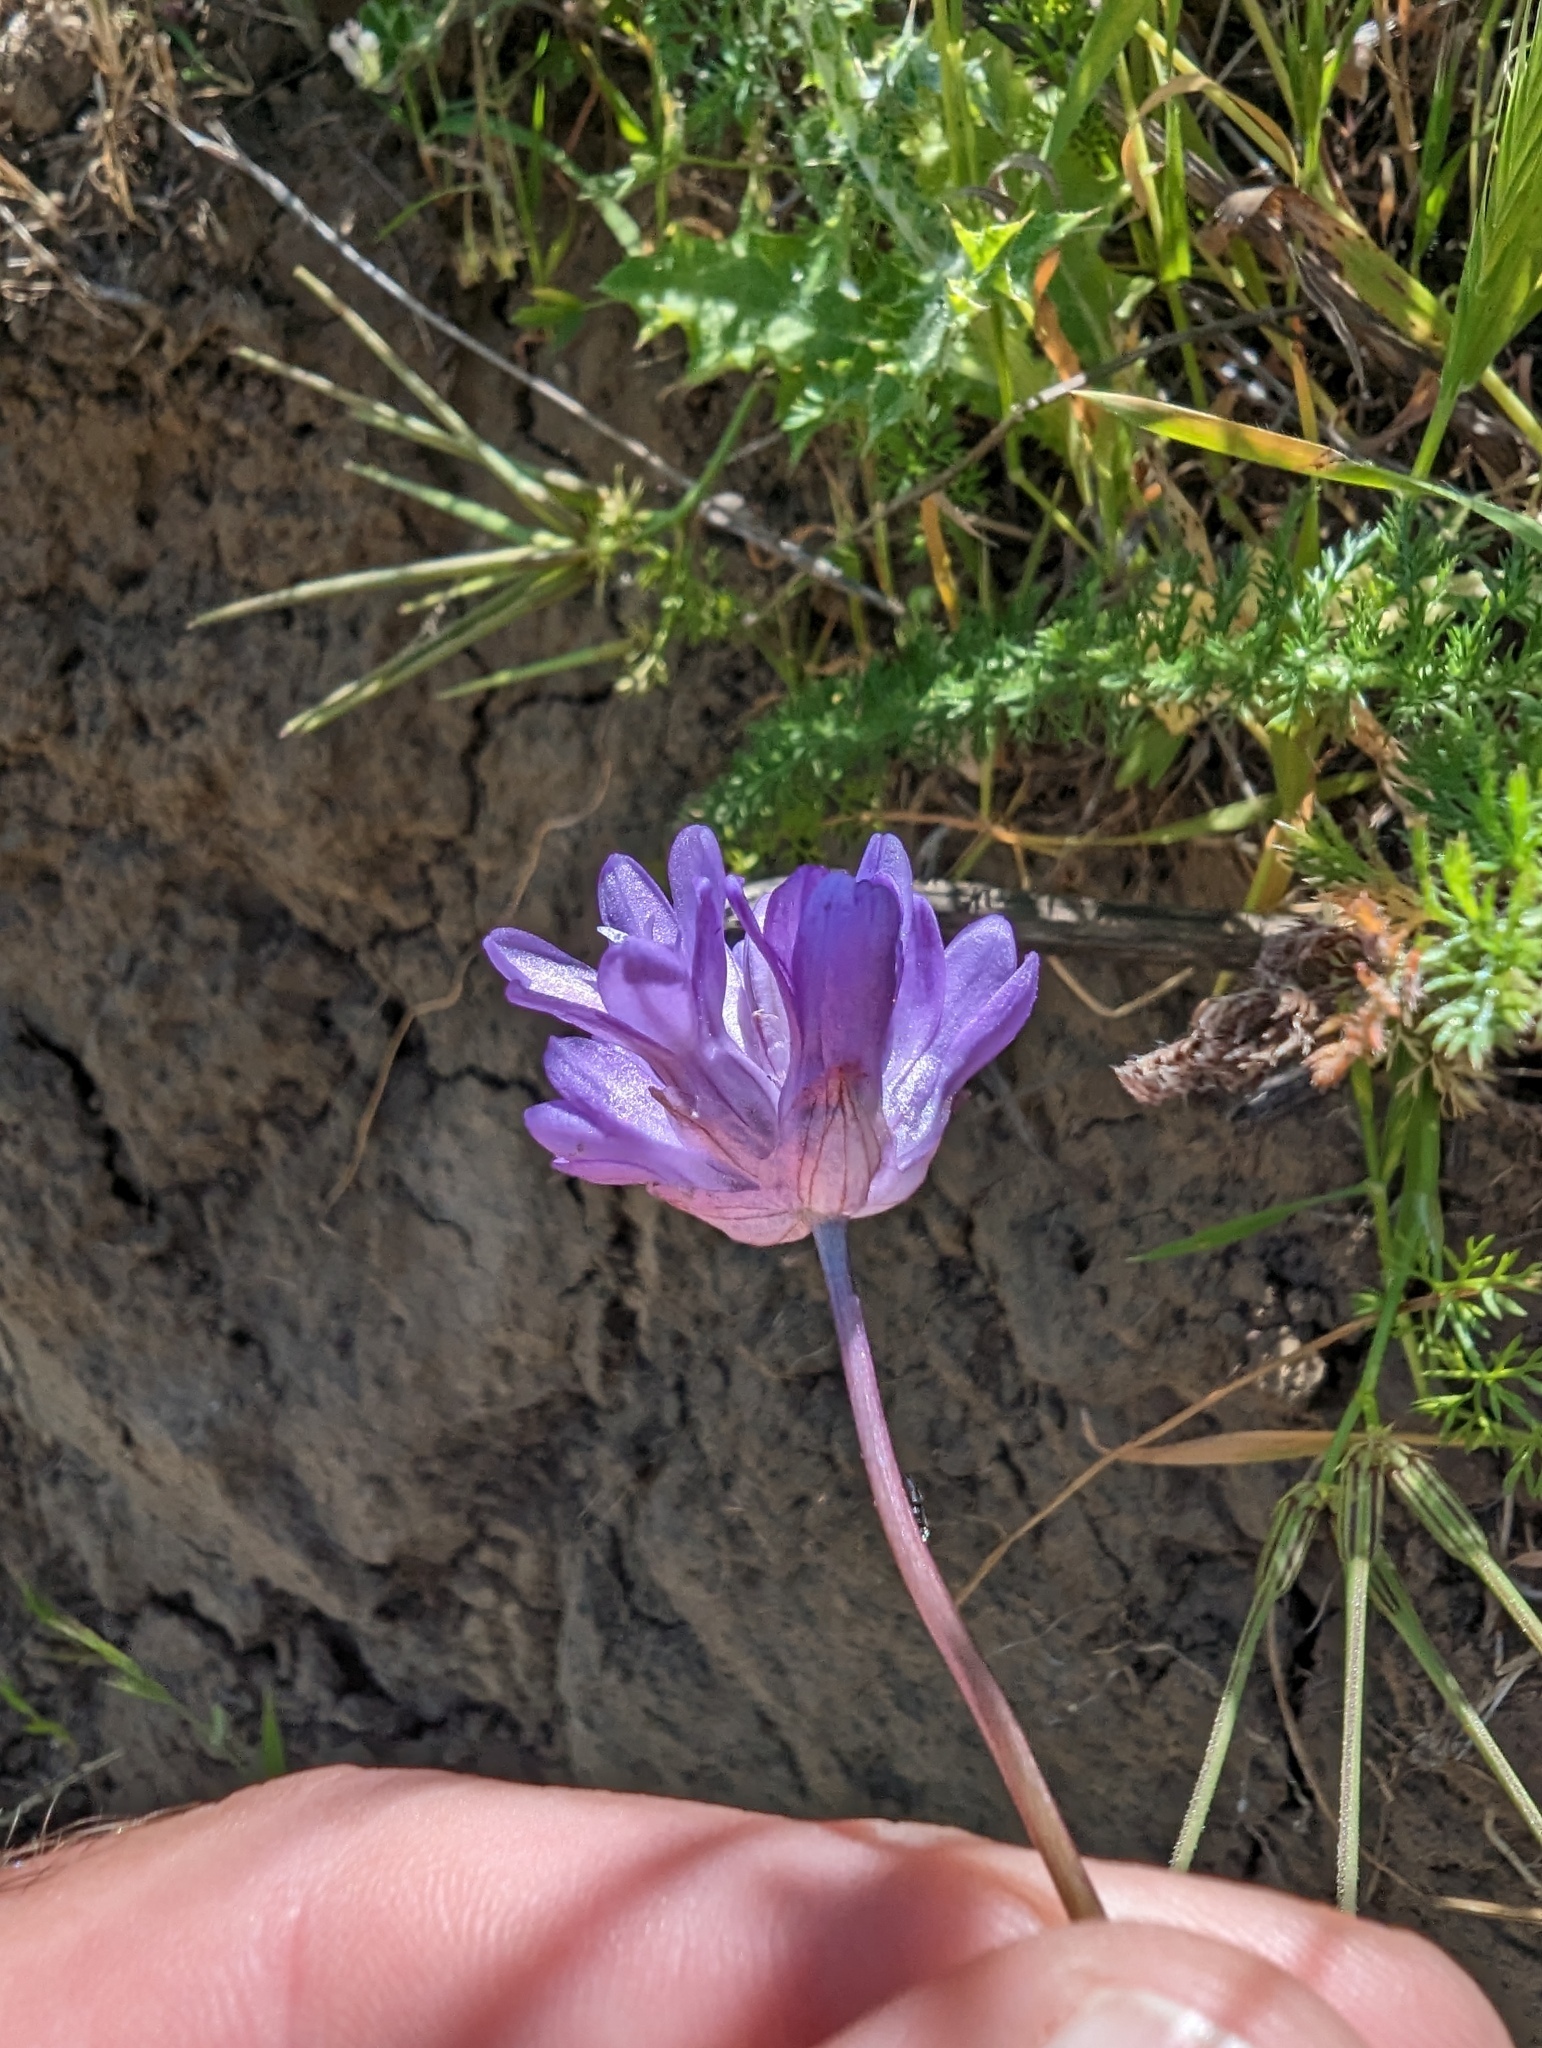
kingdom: Plantae
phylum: Tracheophyta
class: Liliopsida
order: Asparagales
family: Asparagaceae
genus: Dichelostemma
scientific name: Dichelostemma congestum
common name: Fork-tooth ookow
